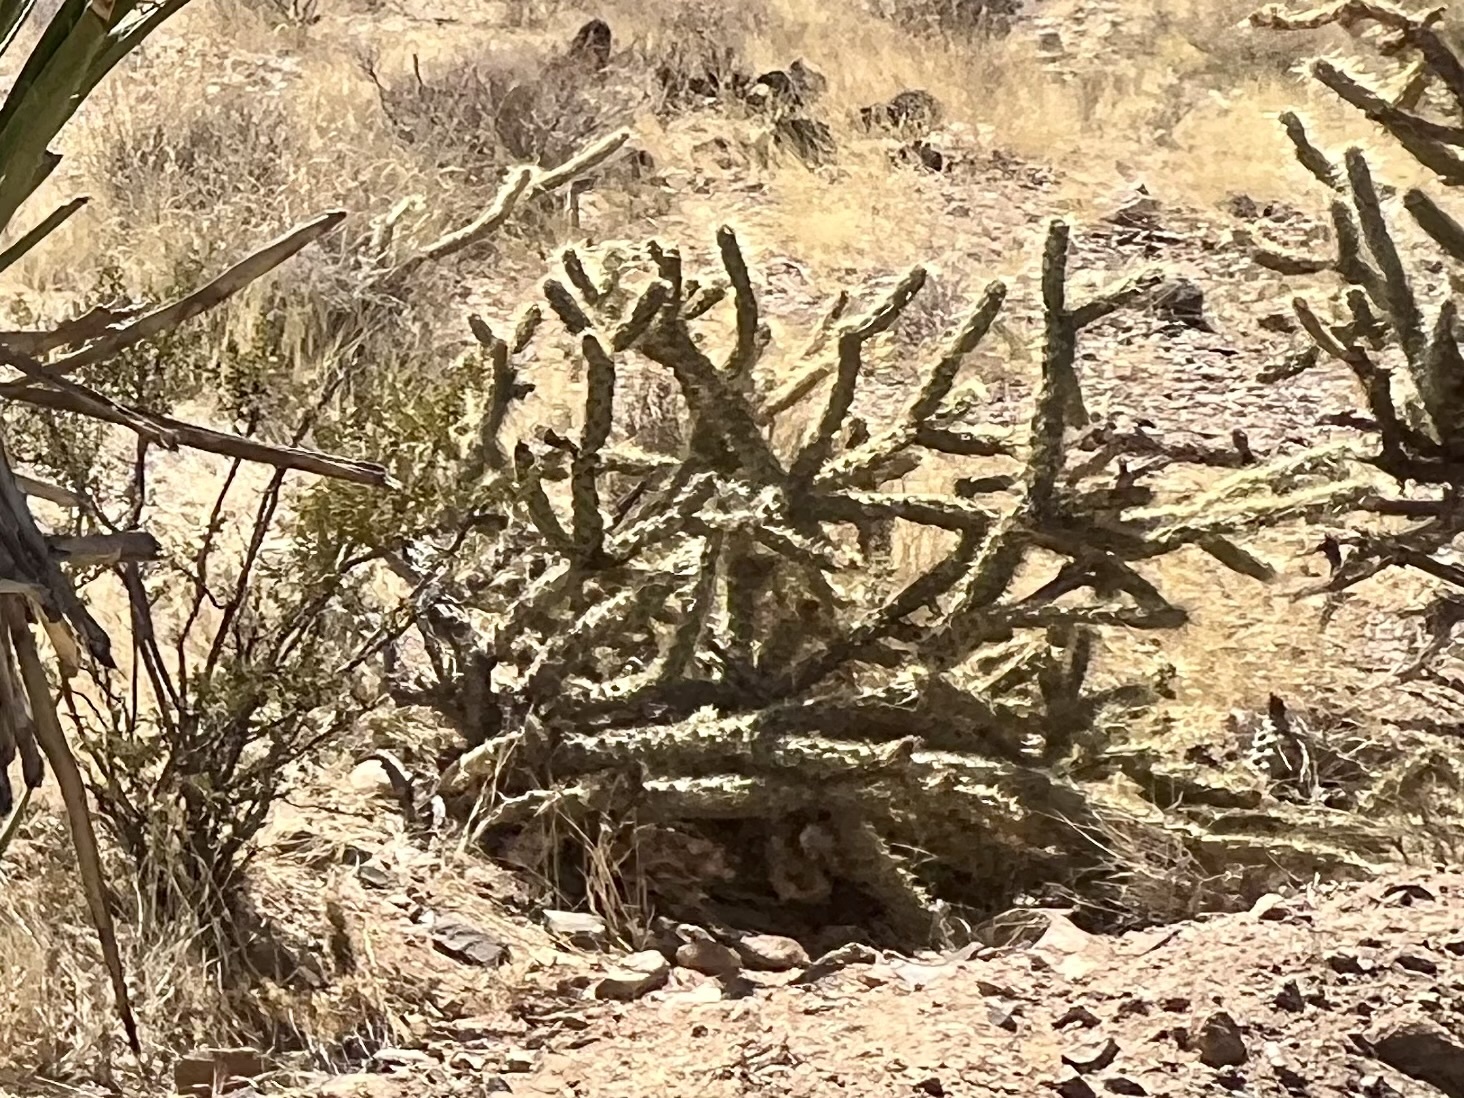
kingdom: Plantae
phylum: Tracheophyta
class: Magnoliopsida
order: Caryophyllales
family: Cactaceae
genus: Cylindropuntia
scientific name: Cylindropuntia acanthocarpa
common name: Buckhorn cholla
